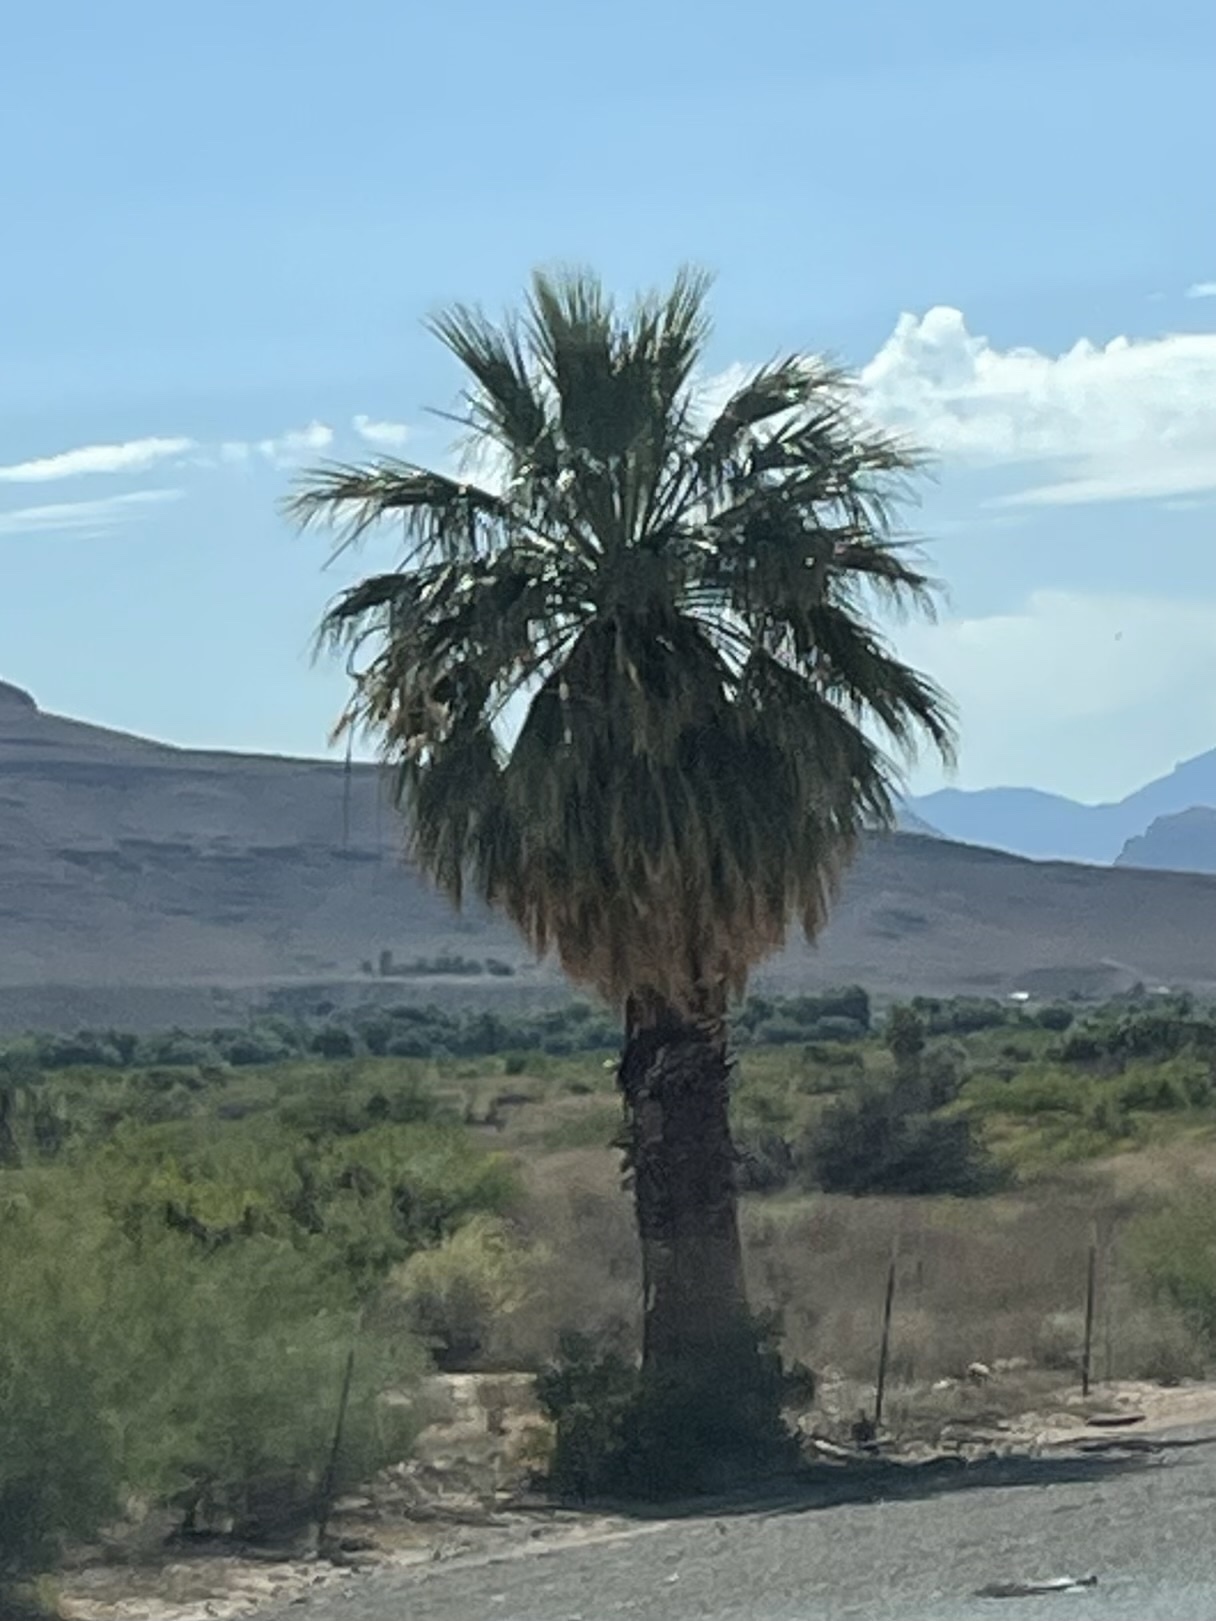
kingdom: Plantae
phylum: Tracheophyta
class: Liliopsida
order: Arecales
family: Arecaceae
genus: Washingtonia
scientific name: Washingtonia filifera
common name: California fan palm
